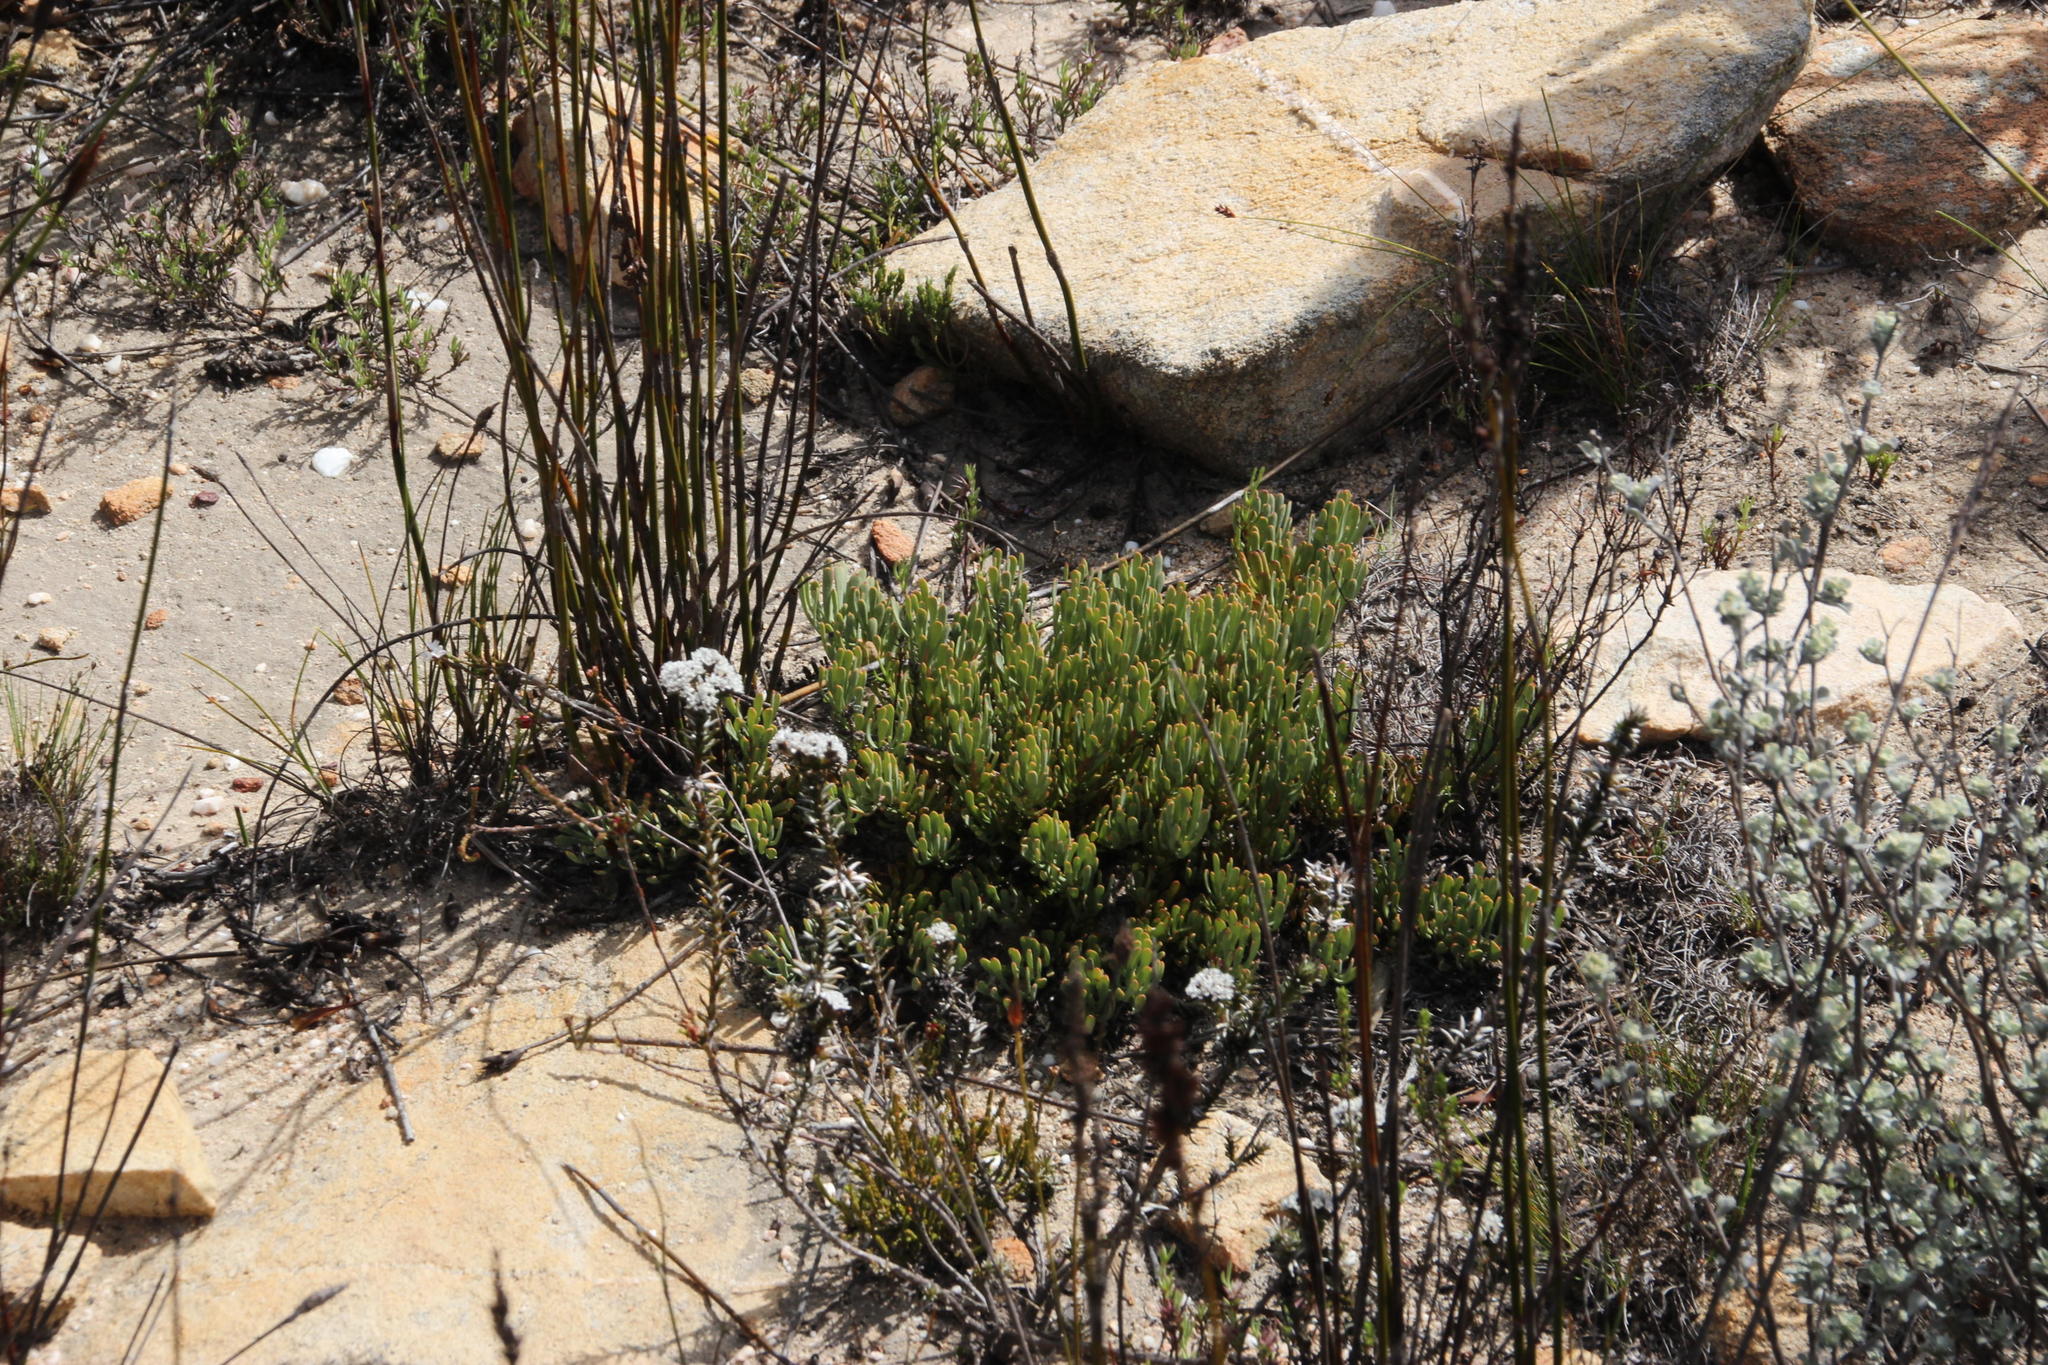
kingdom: Plantae
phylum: Tracheophyta
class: Magnoliopsida
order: Proteales
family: Proteaceae
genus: Vexatorella
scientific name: Vexatorella obtusata
